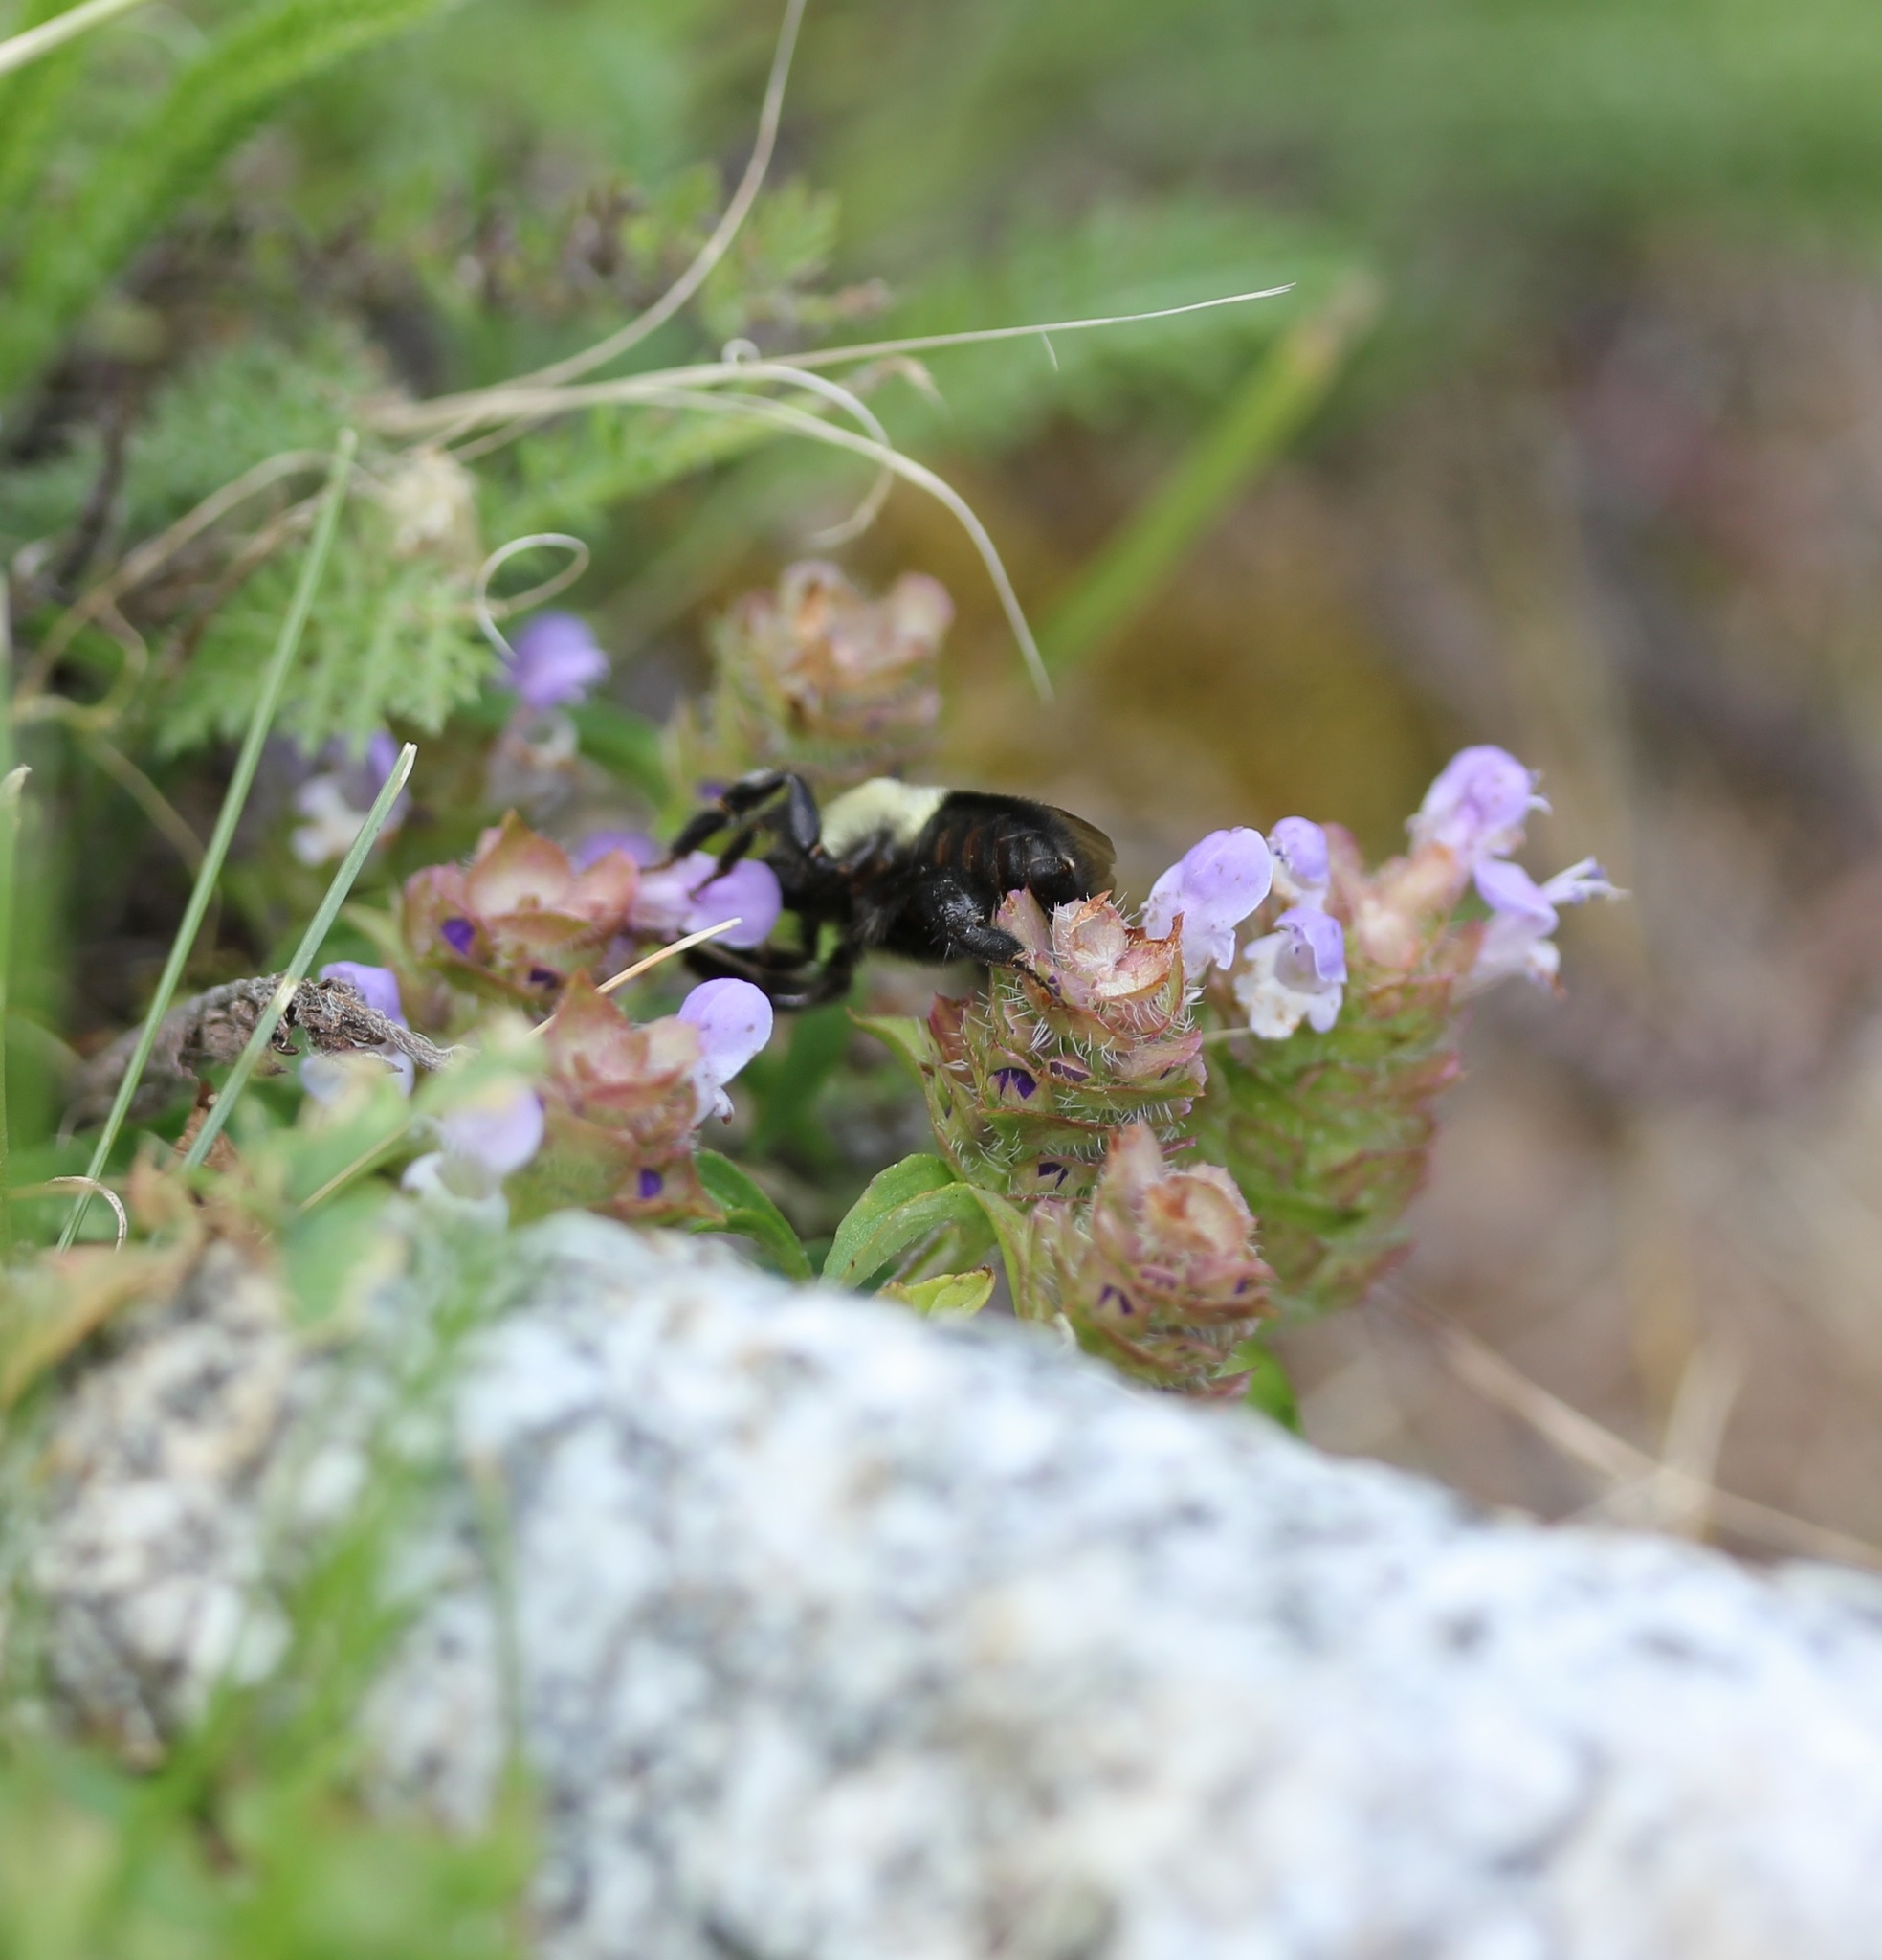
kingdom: Plantae
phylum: Tracheophyta
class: Magnoliopsida
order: Lamiales
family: Lamiaceae
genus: Prunella
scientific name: Prunella vulgaris
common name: Heal-all
